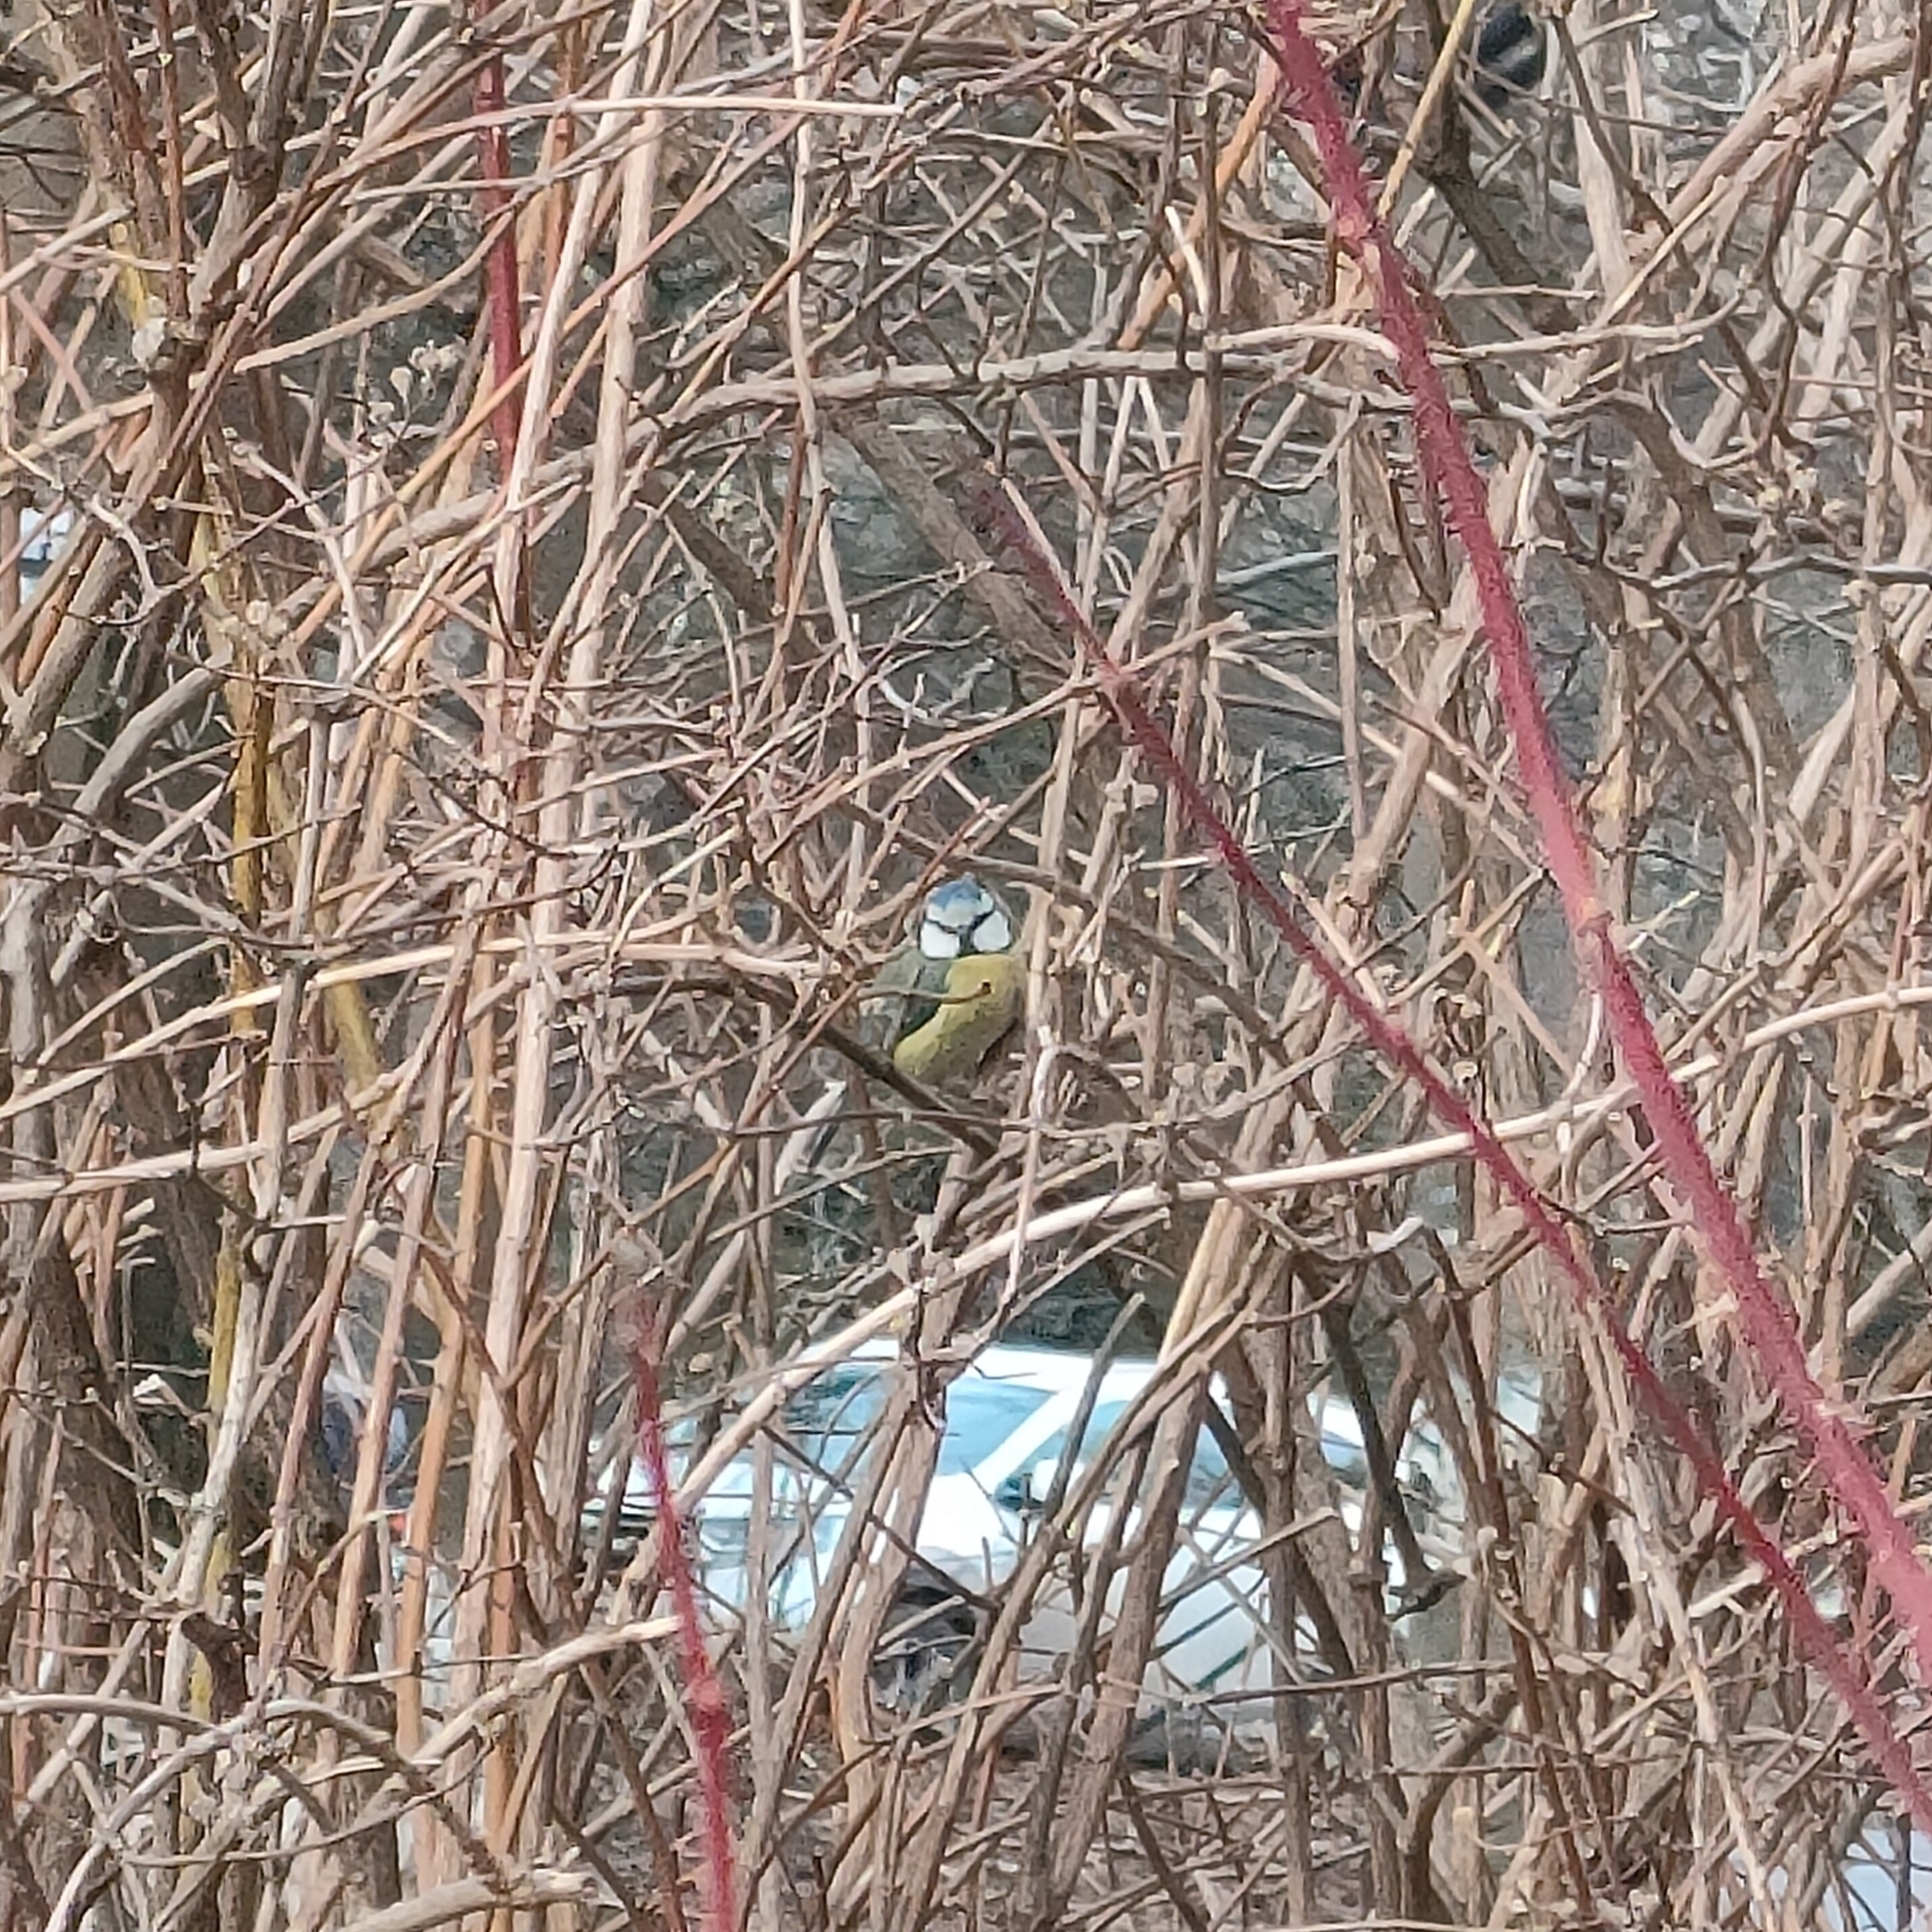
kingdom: Animalia
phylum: Chordata
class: Aves
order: Passeriformes
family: Paridae
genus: Cyanistes
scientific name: Cyanistes caeruleus
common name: Eurasian blue tit
